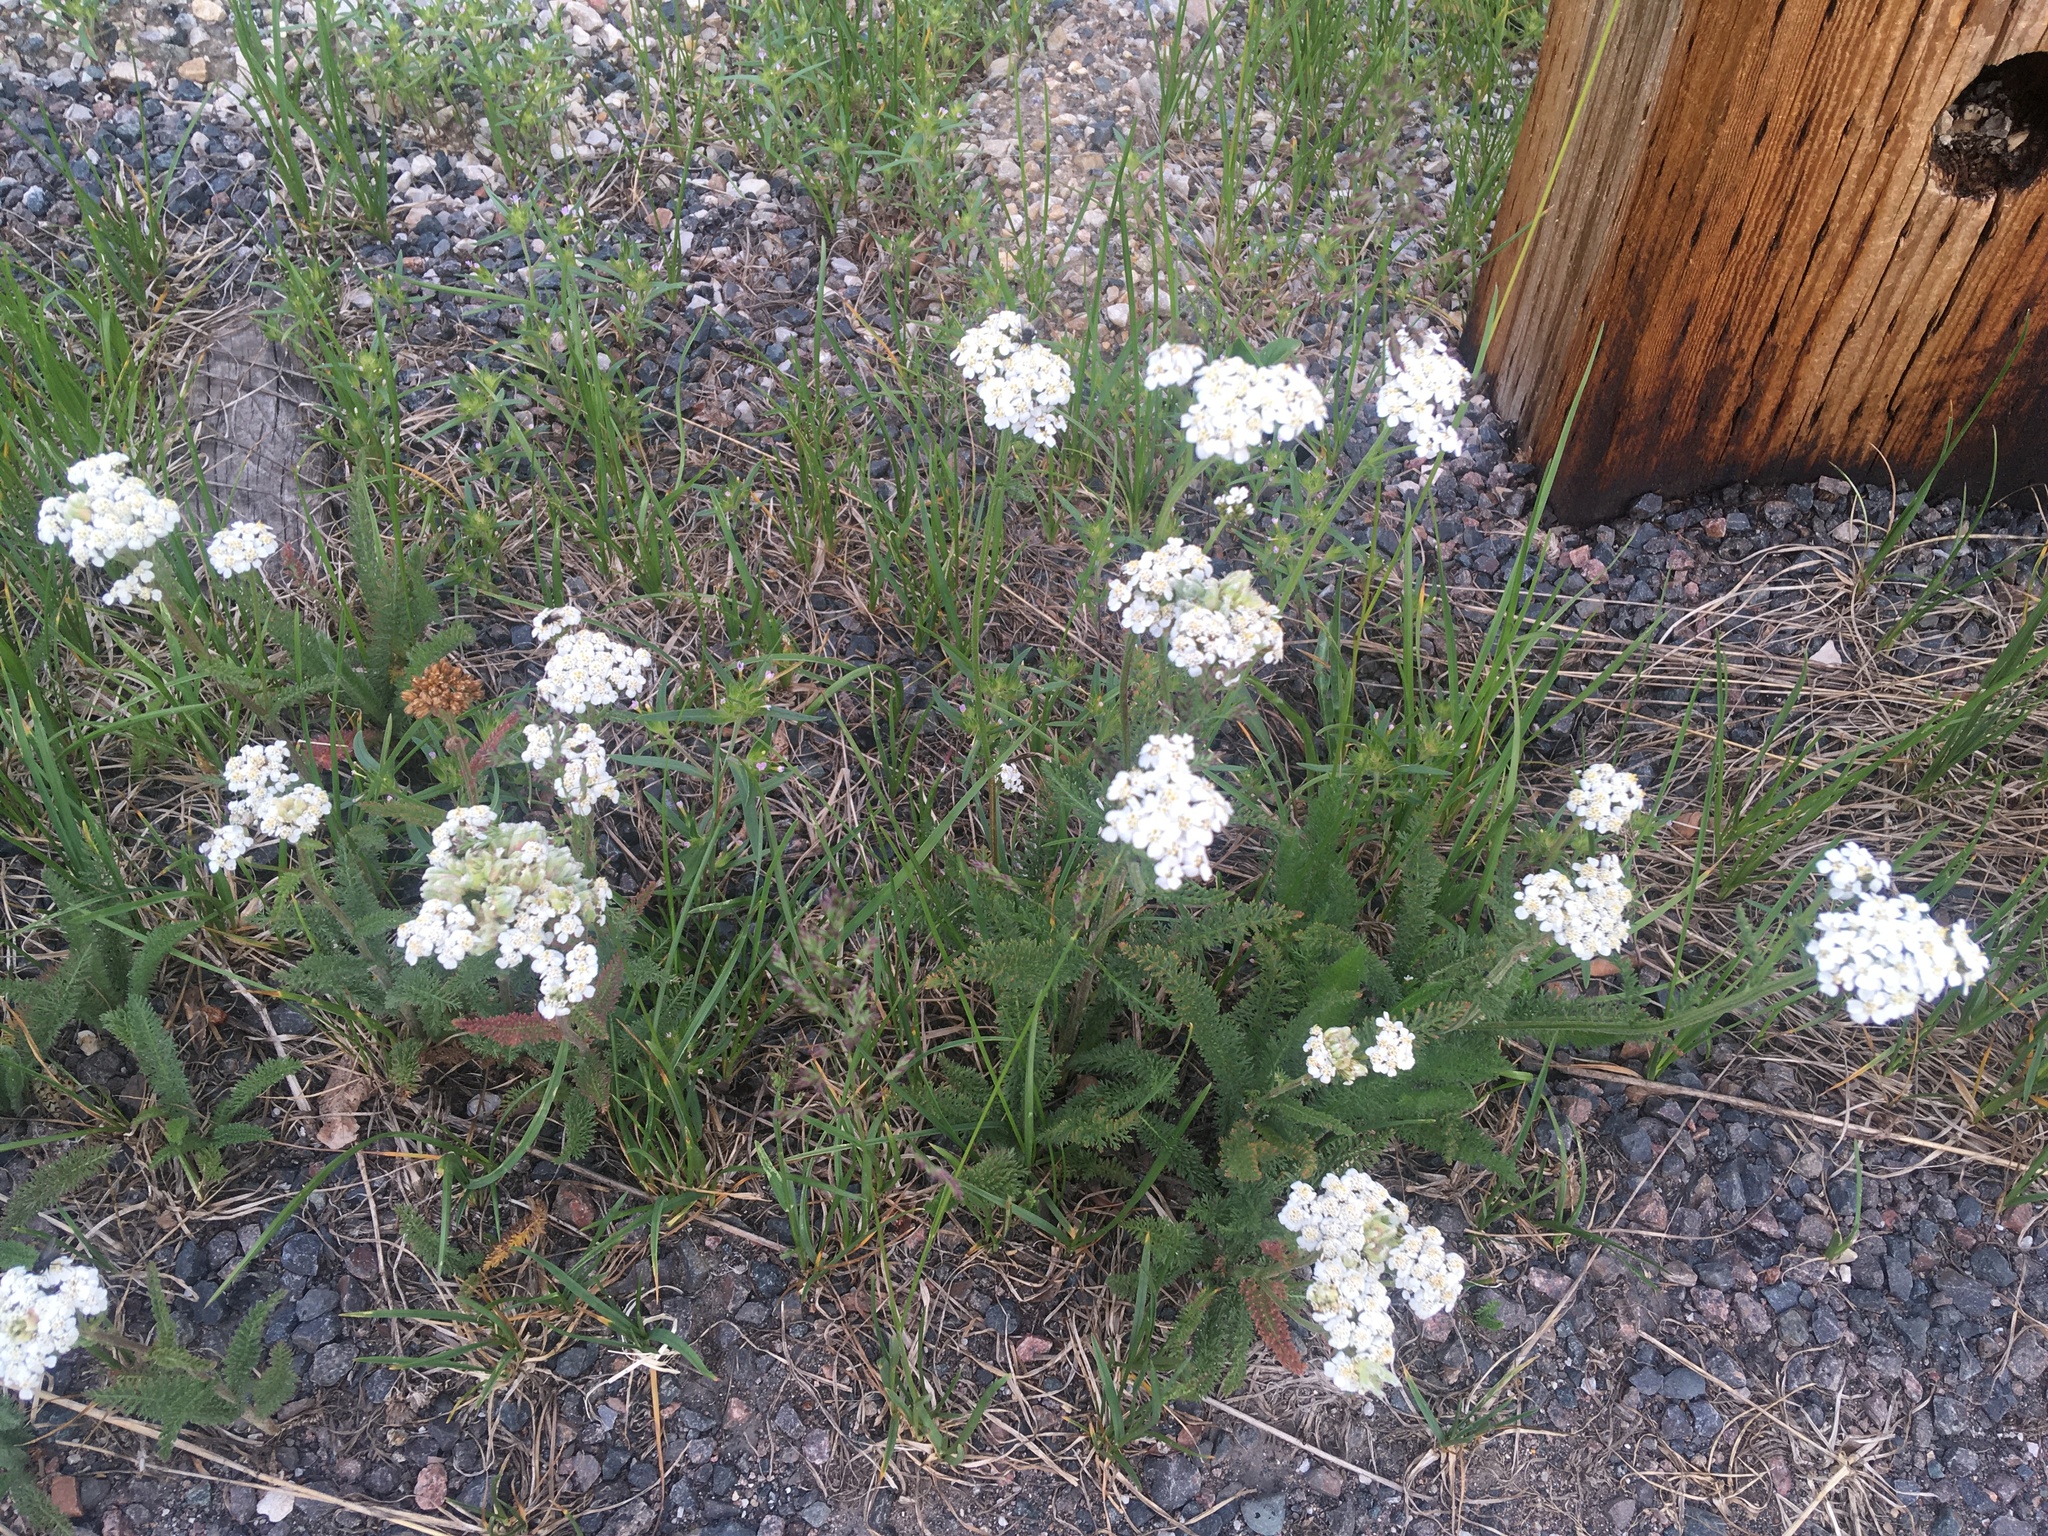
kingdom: Plantae
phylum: Tracheophyta
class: Magnoliopsida
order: Asterales
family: Asteraceae
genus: Achillea
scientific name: Achillea millefolium
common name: Yarrow
